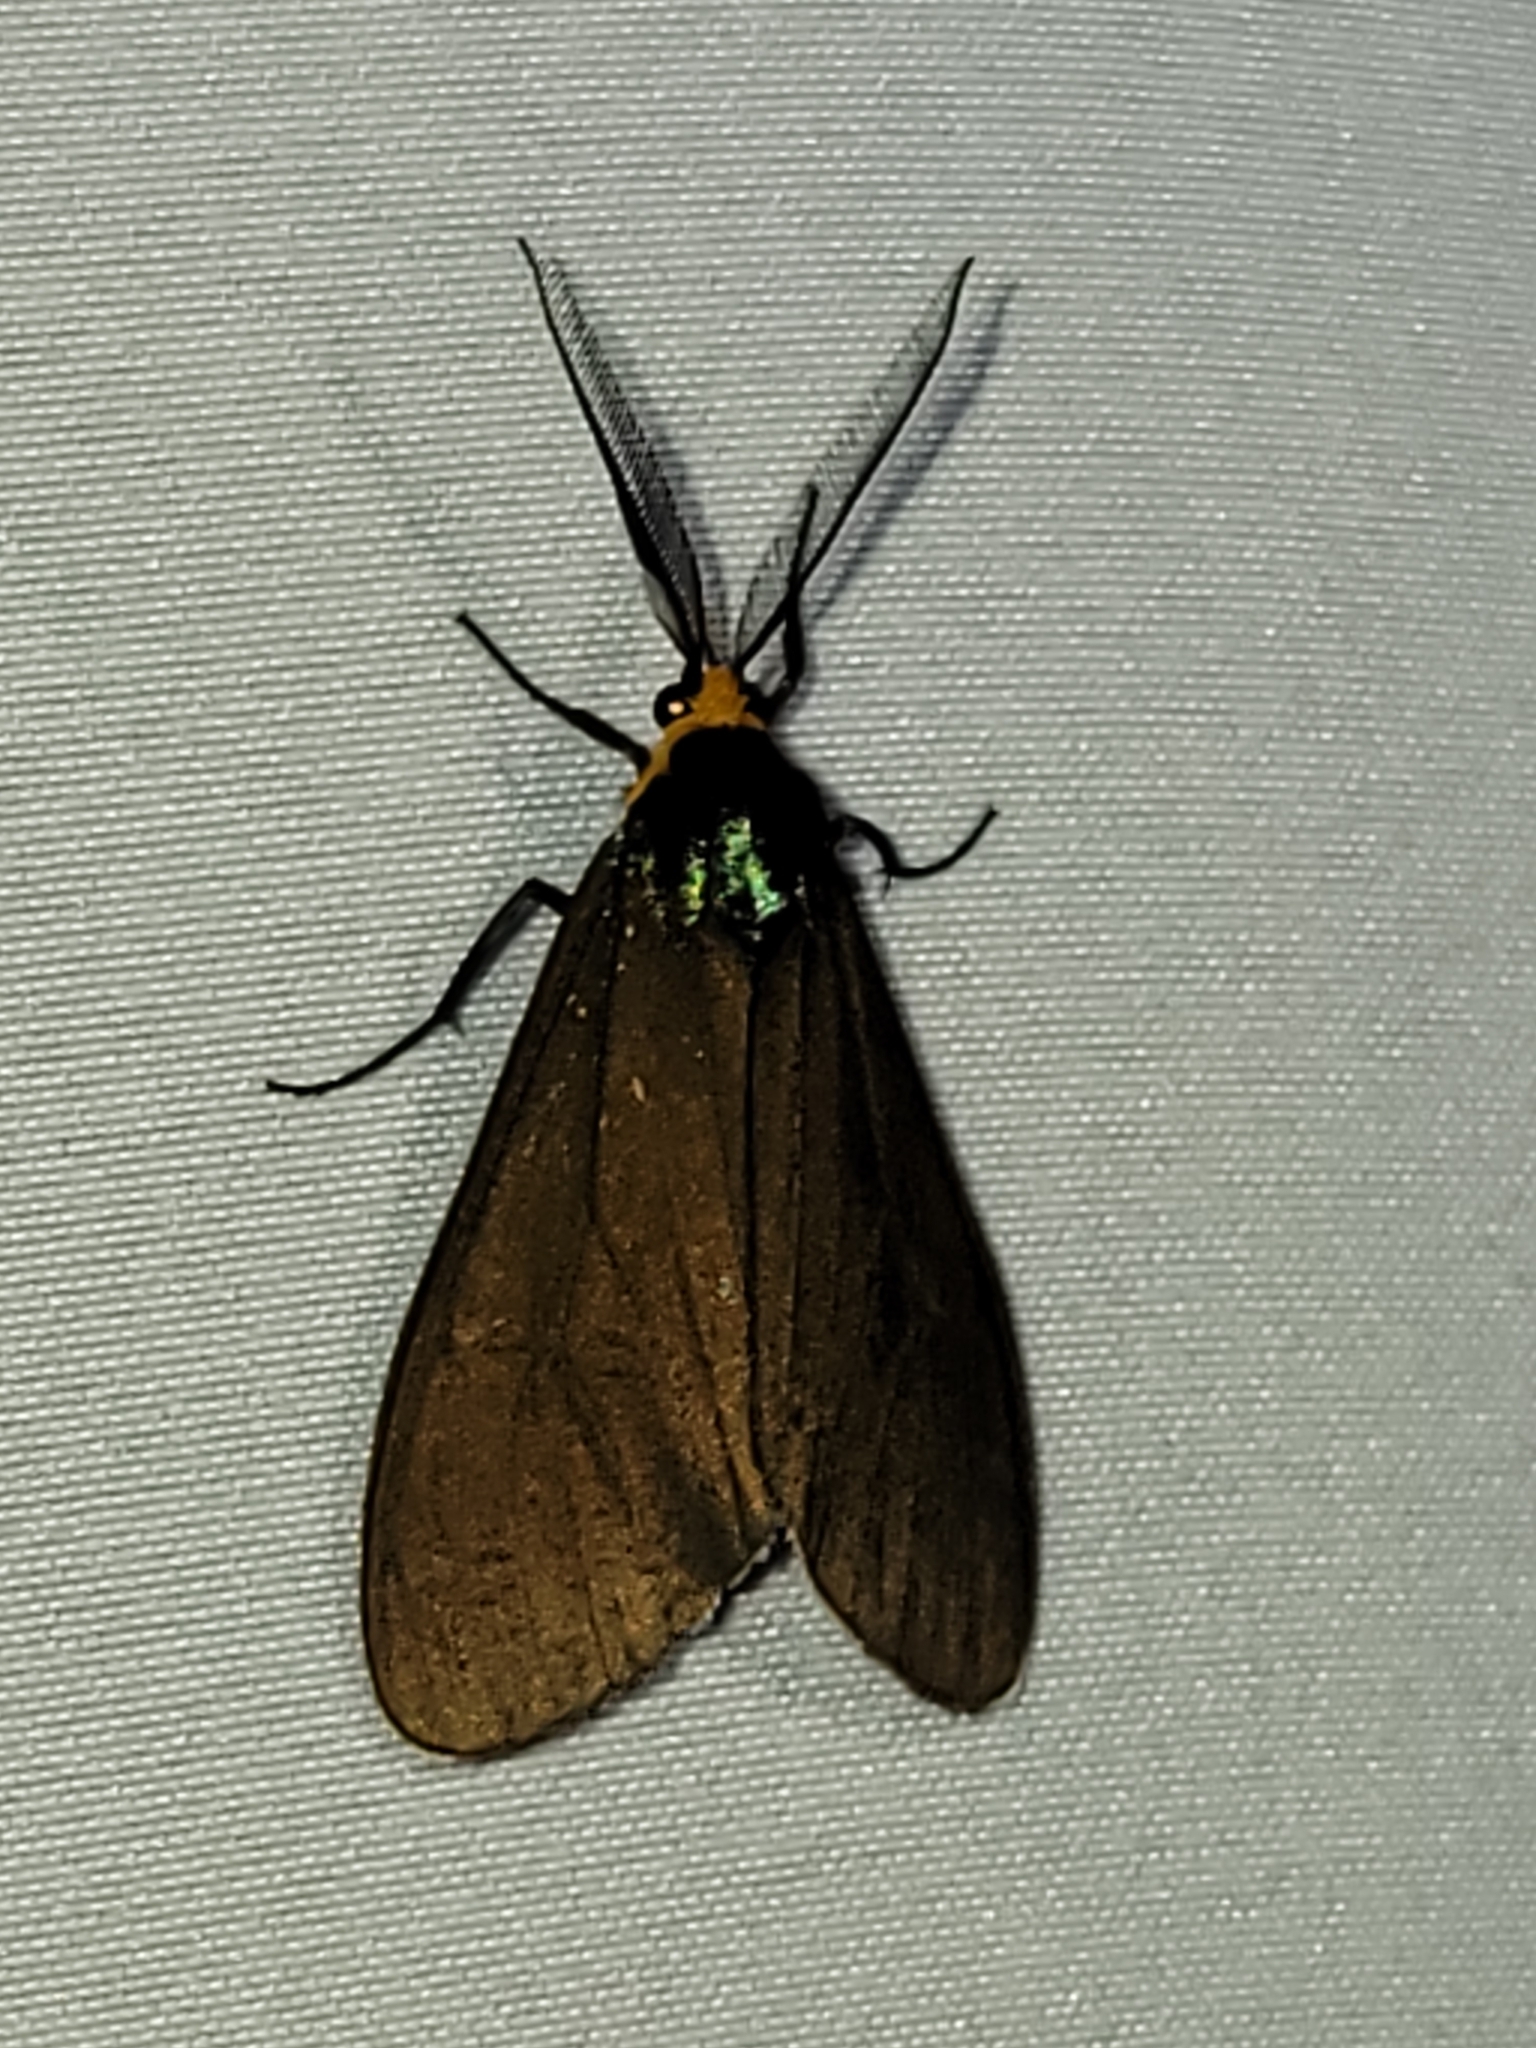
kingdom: Animalia
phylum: Arthropoda
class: Insecta
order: Lepidoptera
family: Erebidae
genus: Ctenucha
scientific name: Ctenucha virginica
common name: Virginia ctenucha moth
